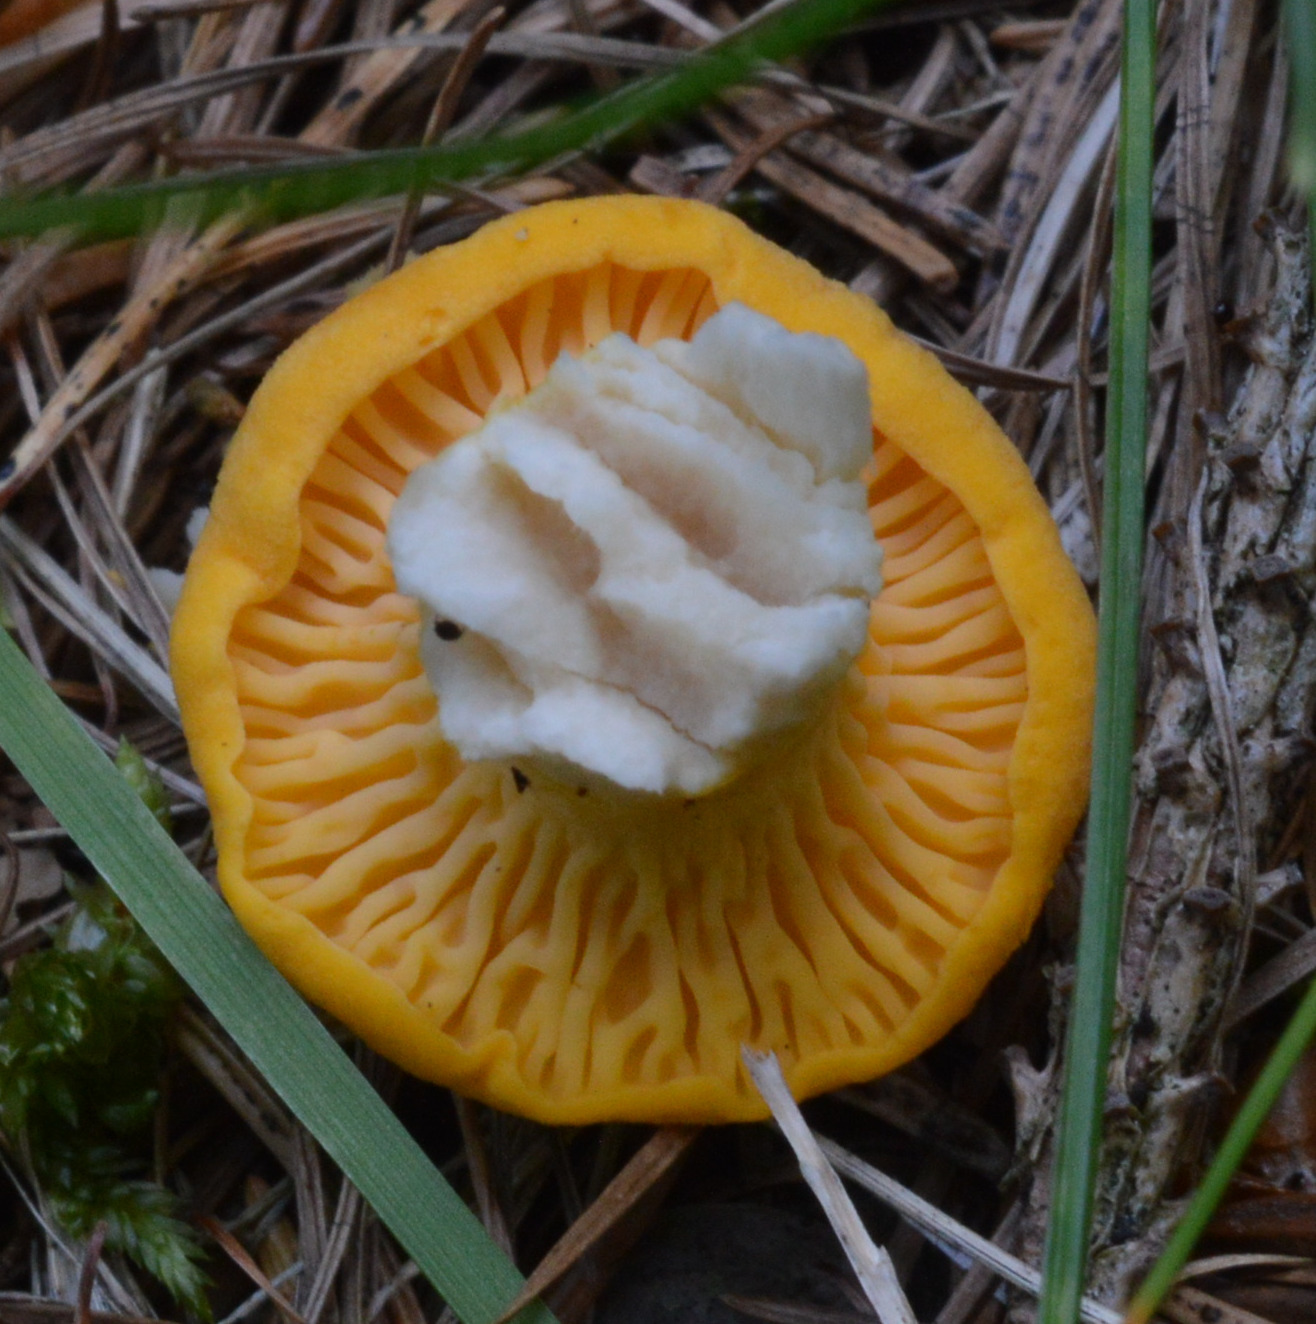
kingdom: Fungi
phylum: Basidiomycota
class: Agaricomycetes
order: Cantharellales
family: Hydnaceae
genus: Cantharellus
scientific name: Cantharellus cibarius
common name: Chanterelle
